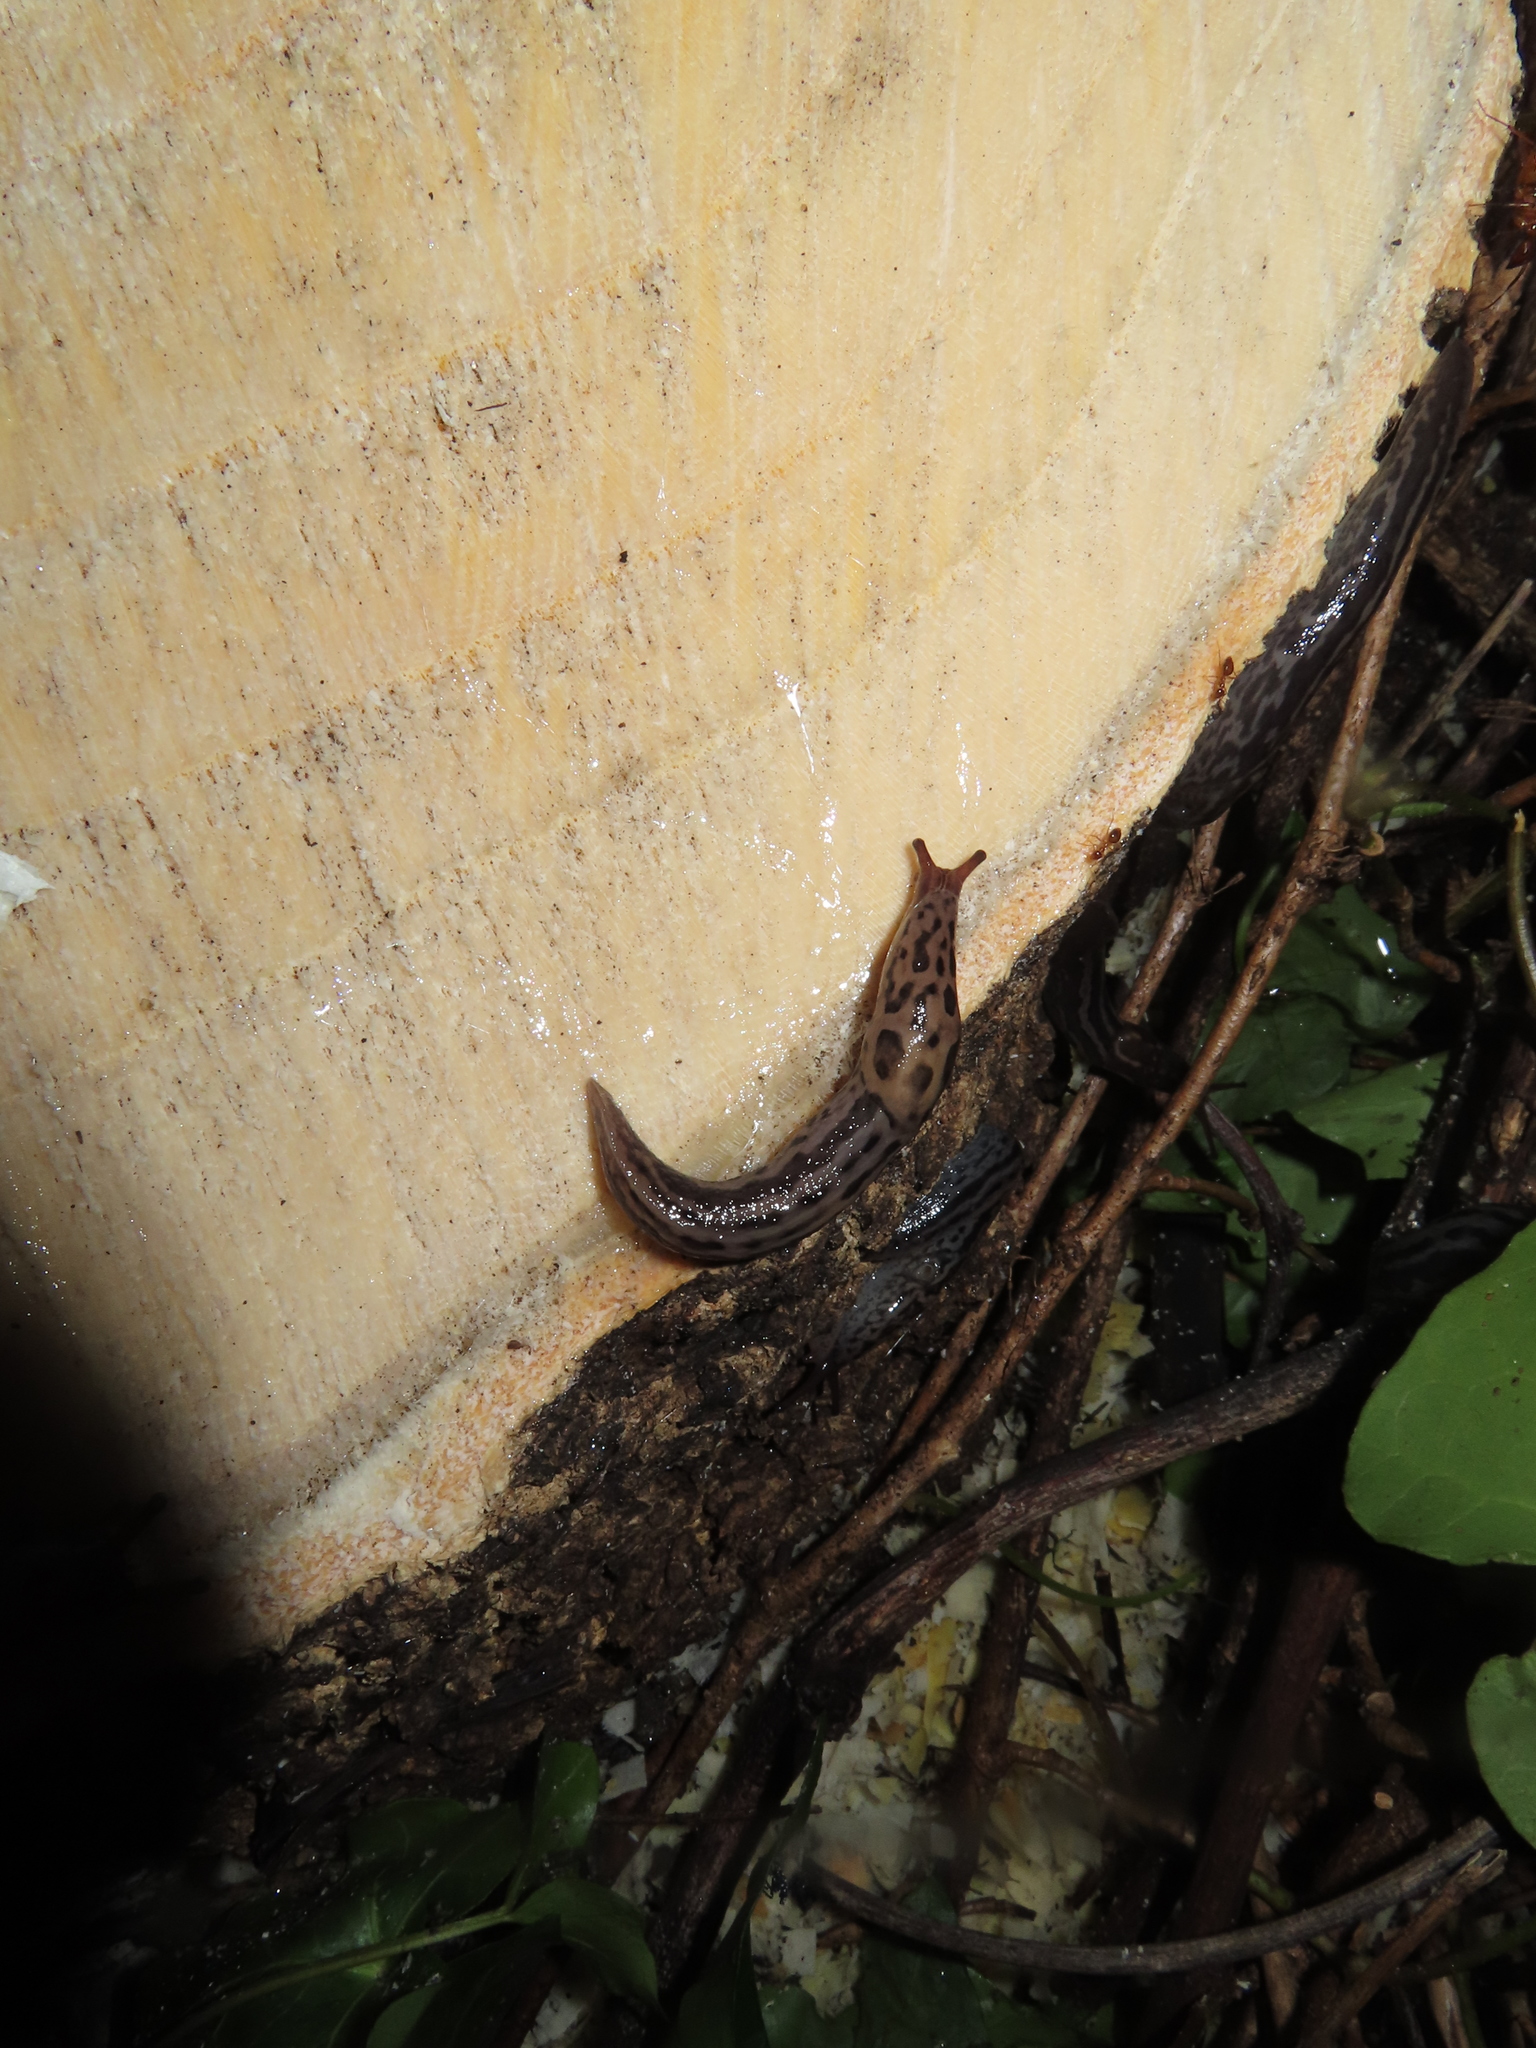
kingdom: Animalia
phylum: Mollusca
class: Gastropoda
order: Stylommatophora
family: Limacidae
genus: Limax
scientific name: Limax maximus
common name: Great grey slug
